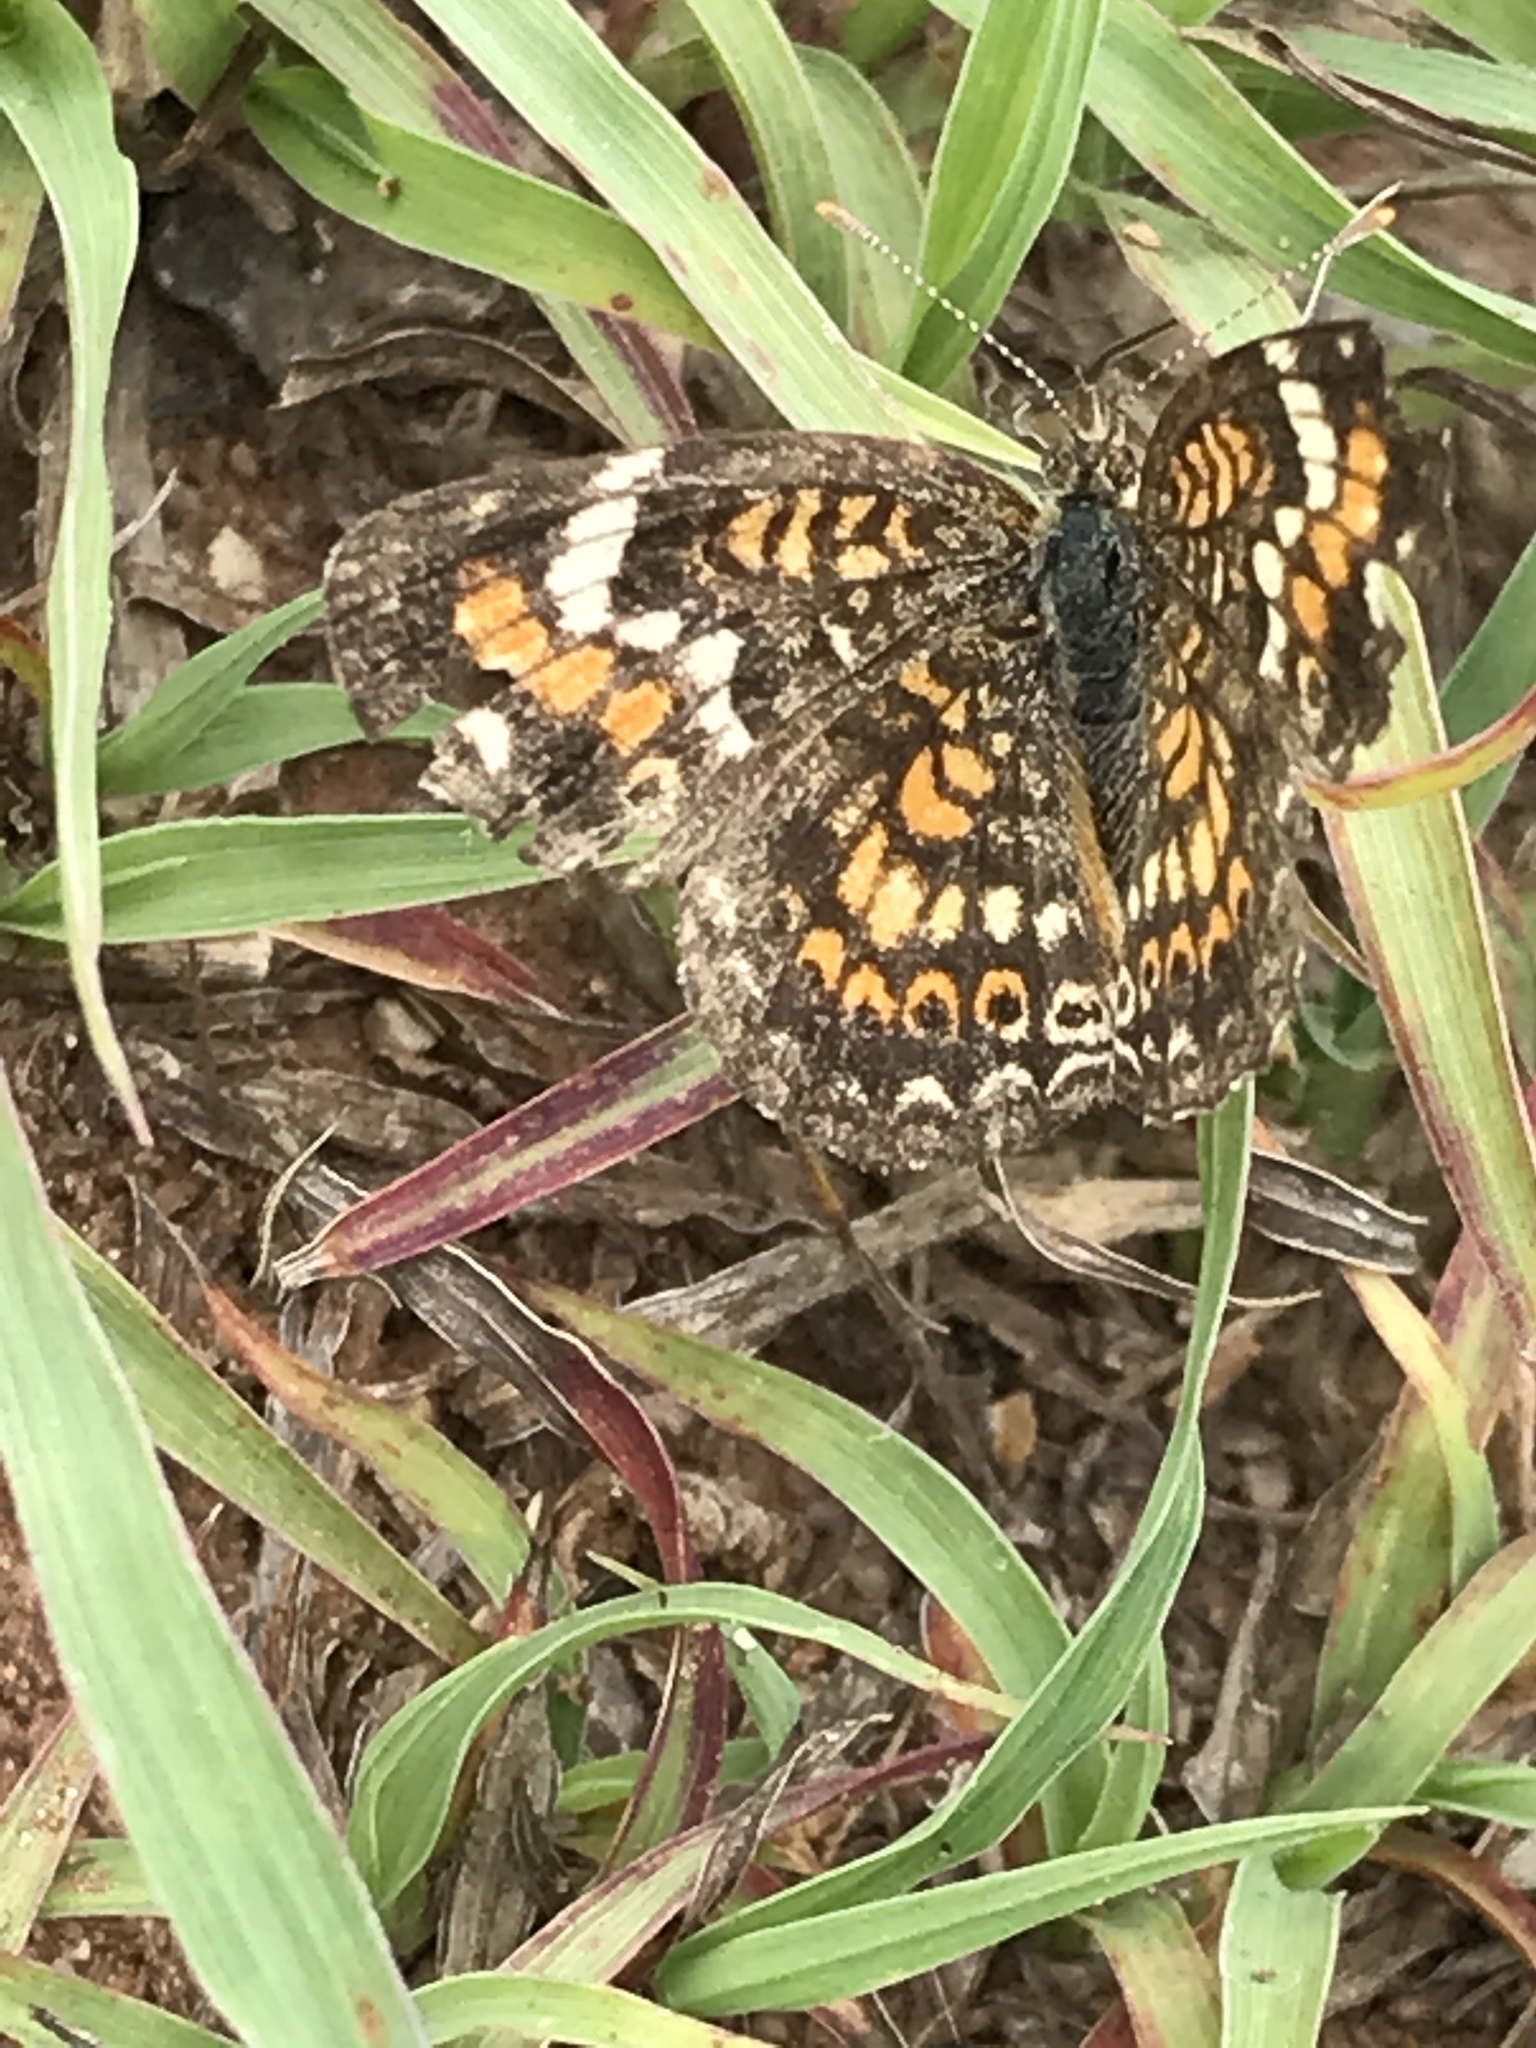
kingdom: Animalia
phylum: Arthropoda
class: Insecta
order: Lepidoptera
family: Nymphalidae
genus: Phyciodes
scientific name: Phyciodes phaon
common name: Phaon crescent
